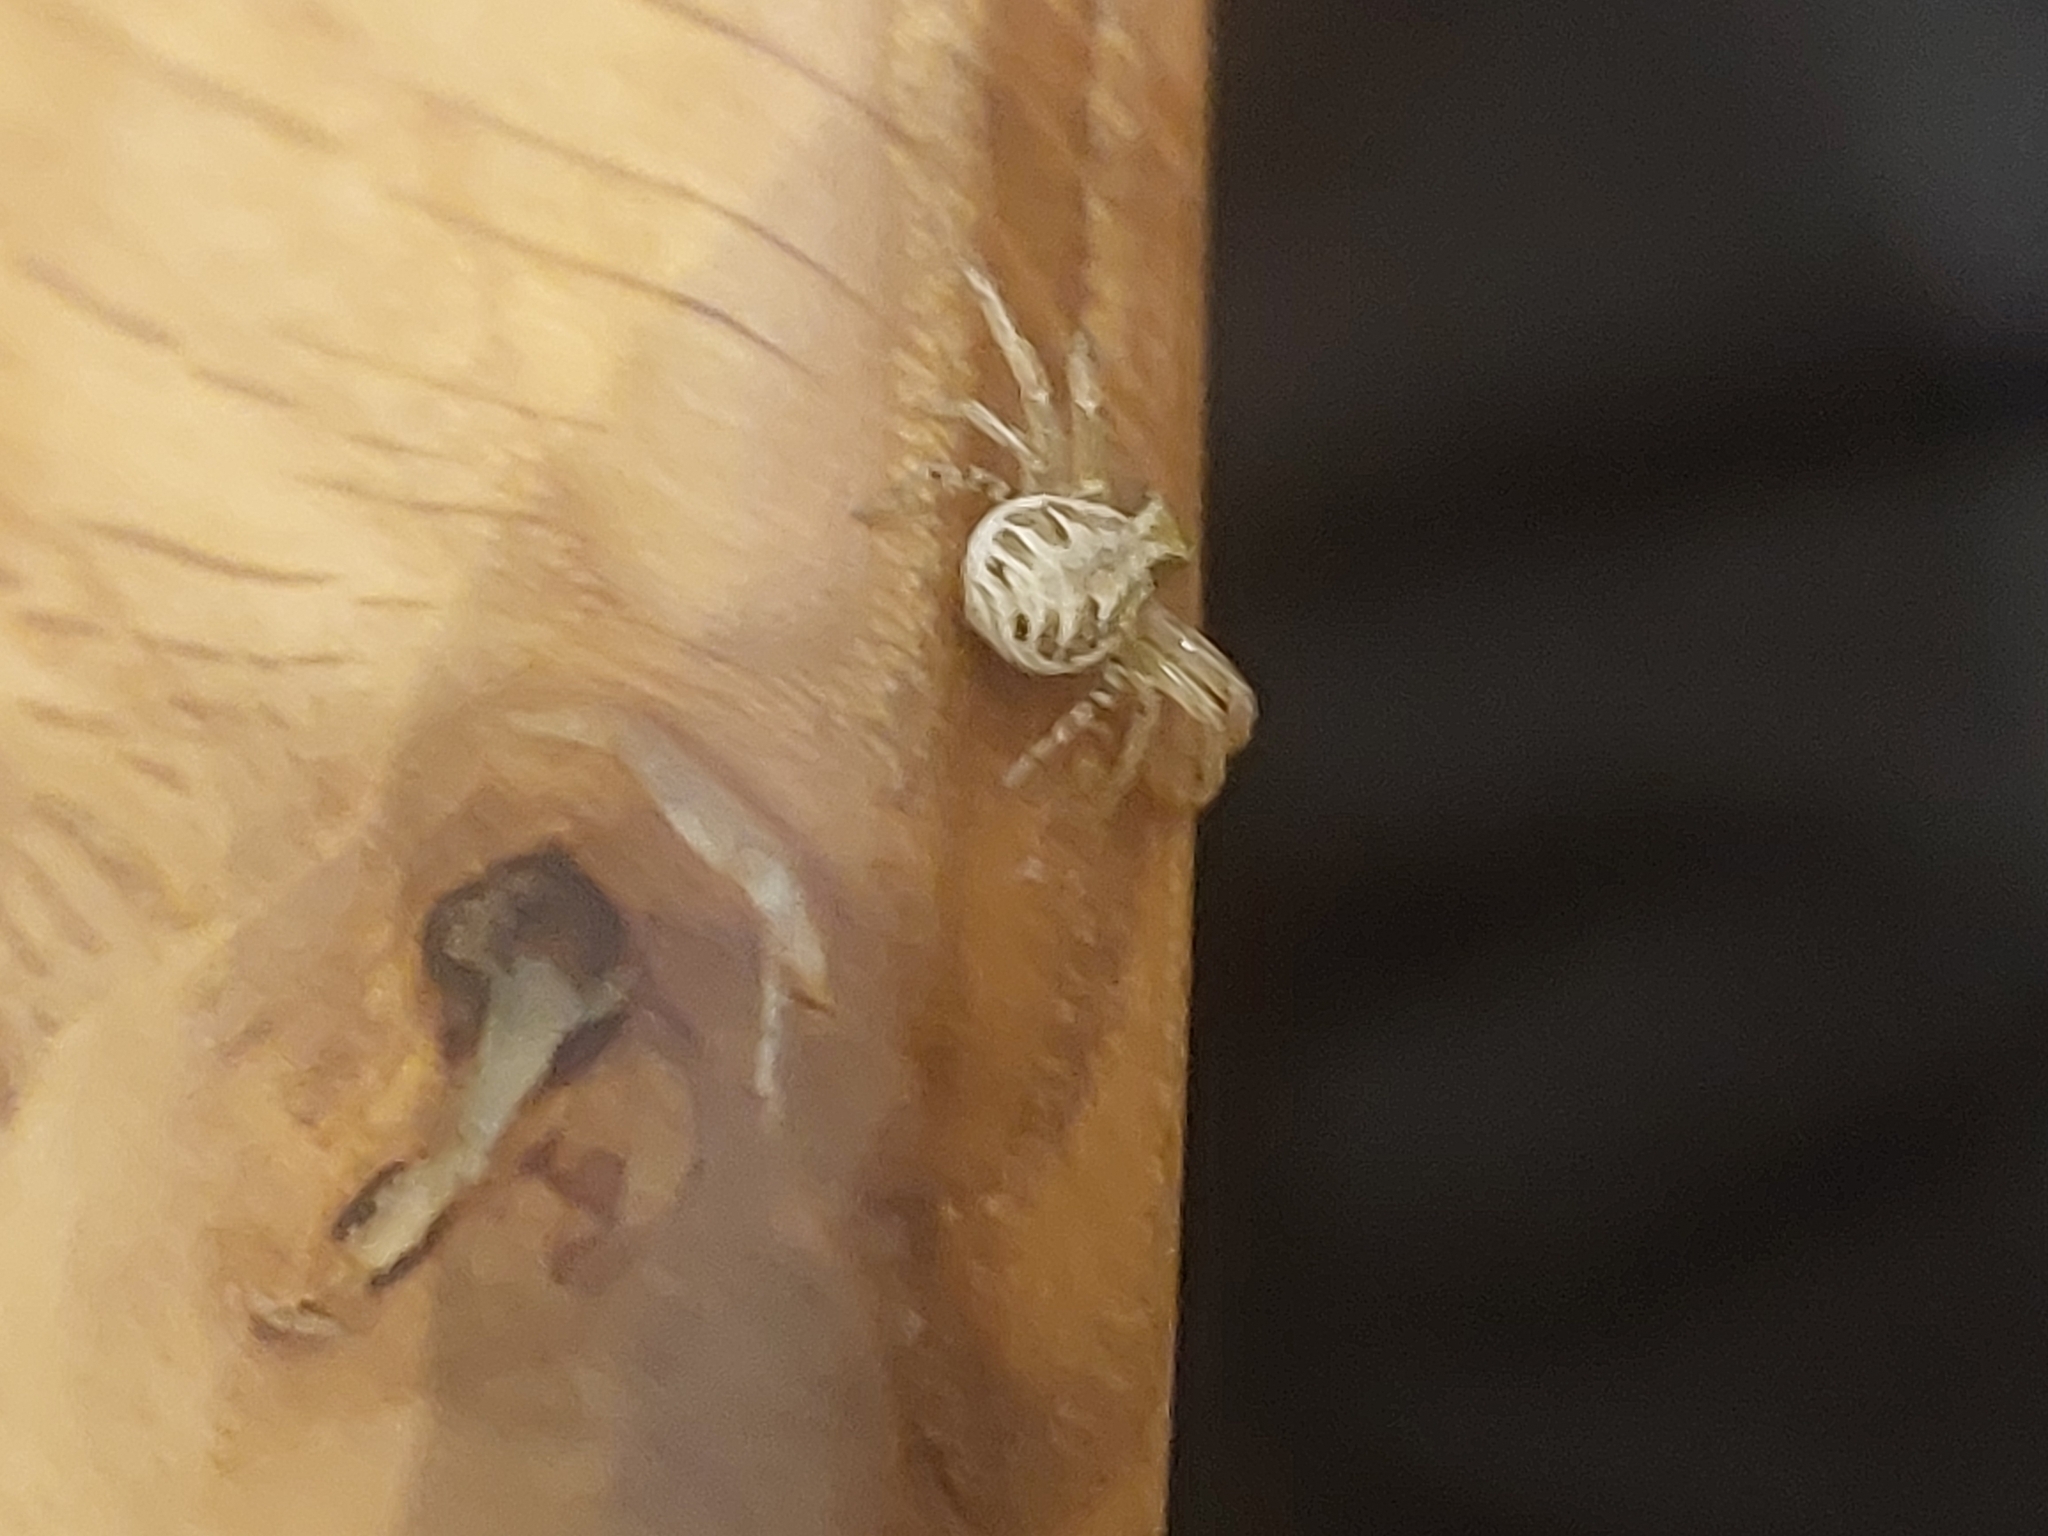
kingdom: Animalia
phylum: Arthropoda
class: Arachnida
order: Araneae
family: Thomisidae
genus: Xysticus
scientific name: Xysticus
